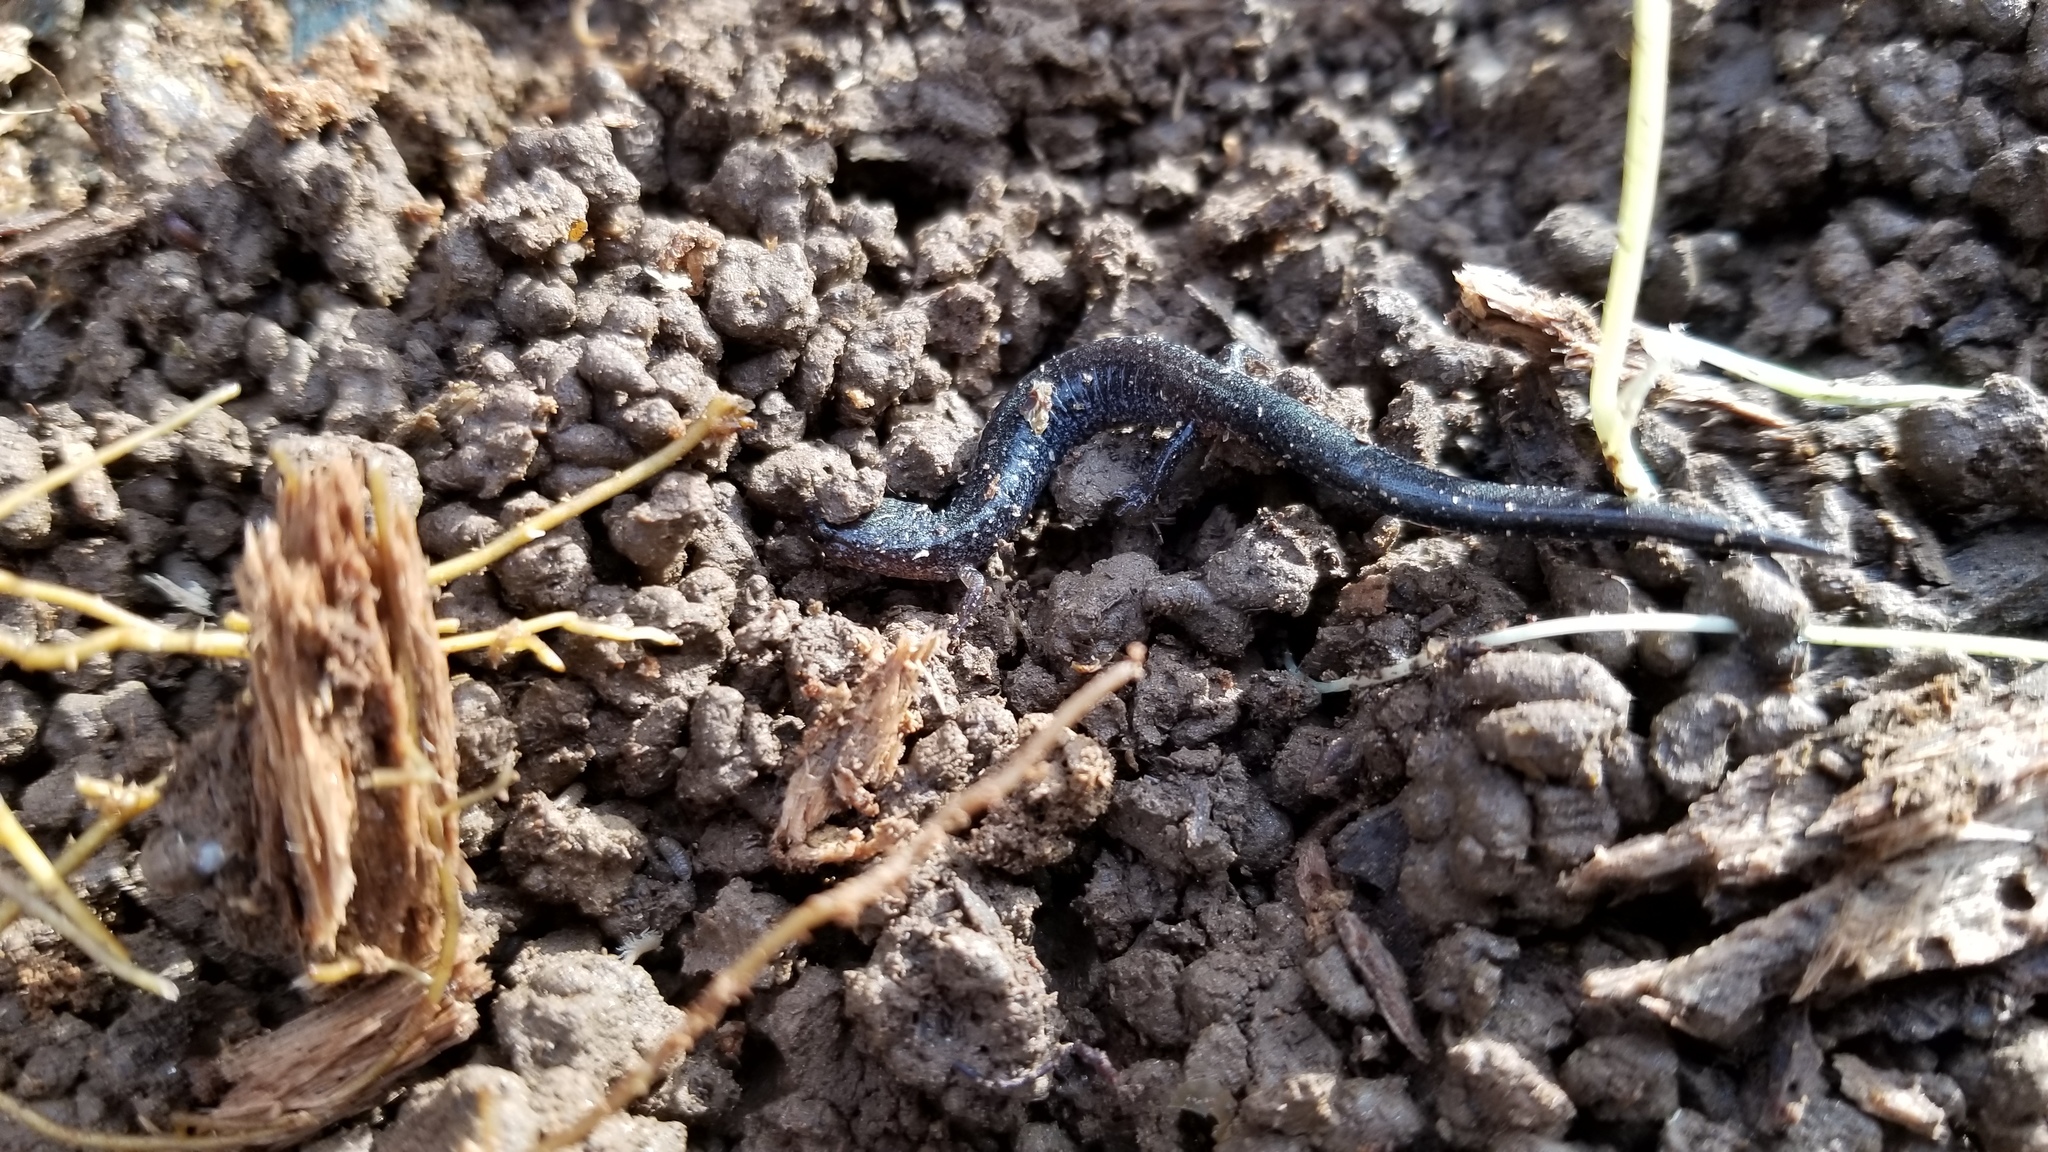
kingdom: Animalia
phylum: Chordata
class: Amphibia
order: Caudata
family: Plethodontidae
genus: Plethodon
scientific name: Plethodon cinereus
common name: Redback salamander
